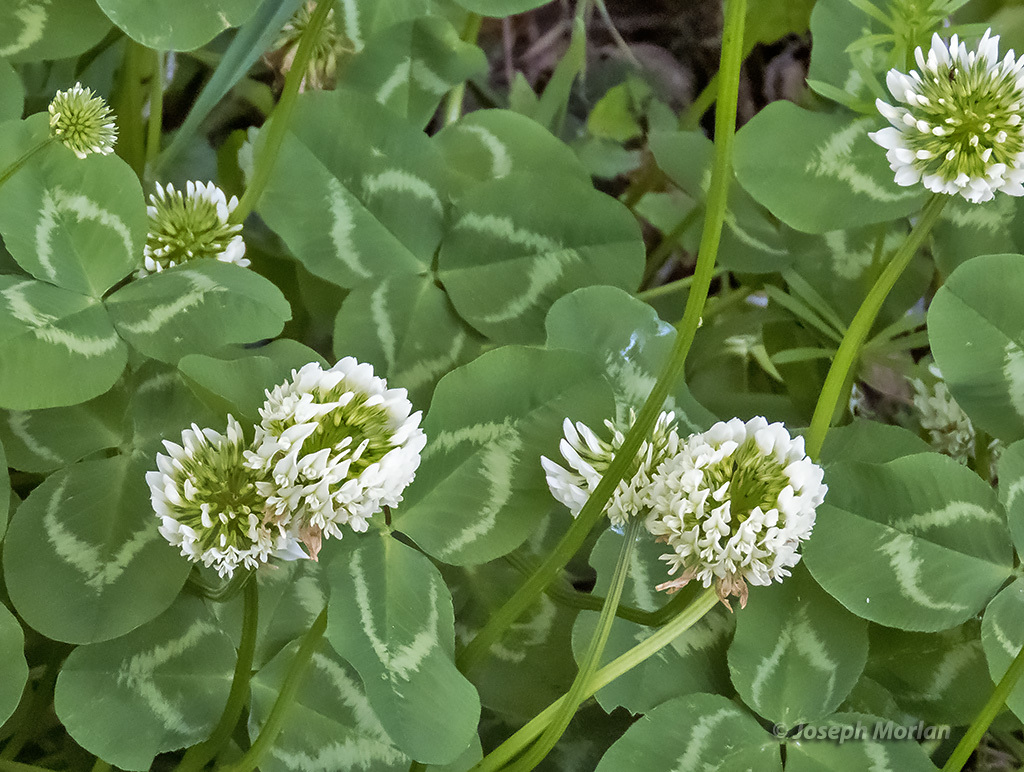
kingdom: Plantae
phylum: Tracheophyta
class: Magnoliopsida
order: Fabales
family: Fabaceae
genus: Trifolium
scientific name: Trifolium repens
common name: White clover
